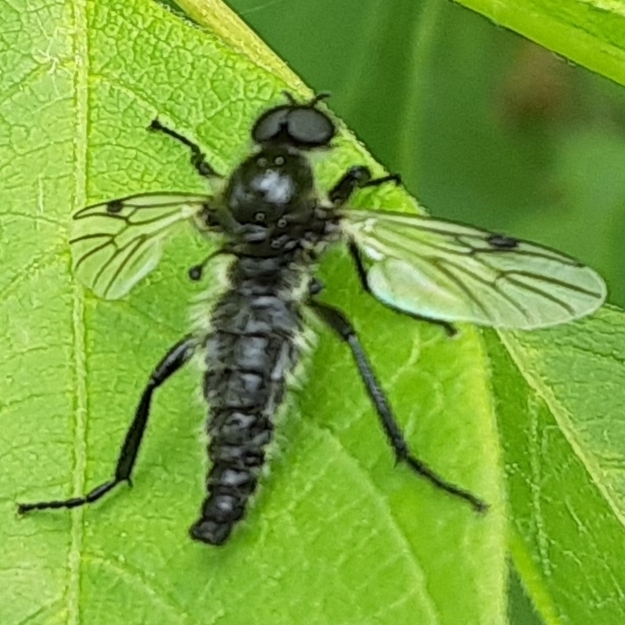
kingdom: Animalia
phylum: Arthropoda
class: Insecta
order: Diptera
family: Bibionidae
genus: Bibio
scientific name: Bibio albipennis
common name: White-winged march fly
